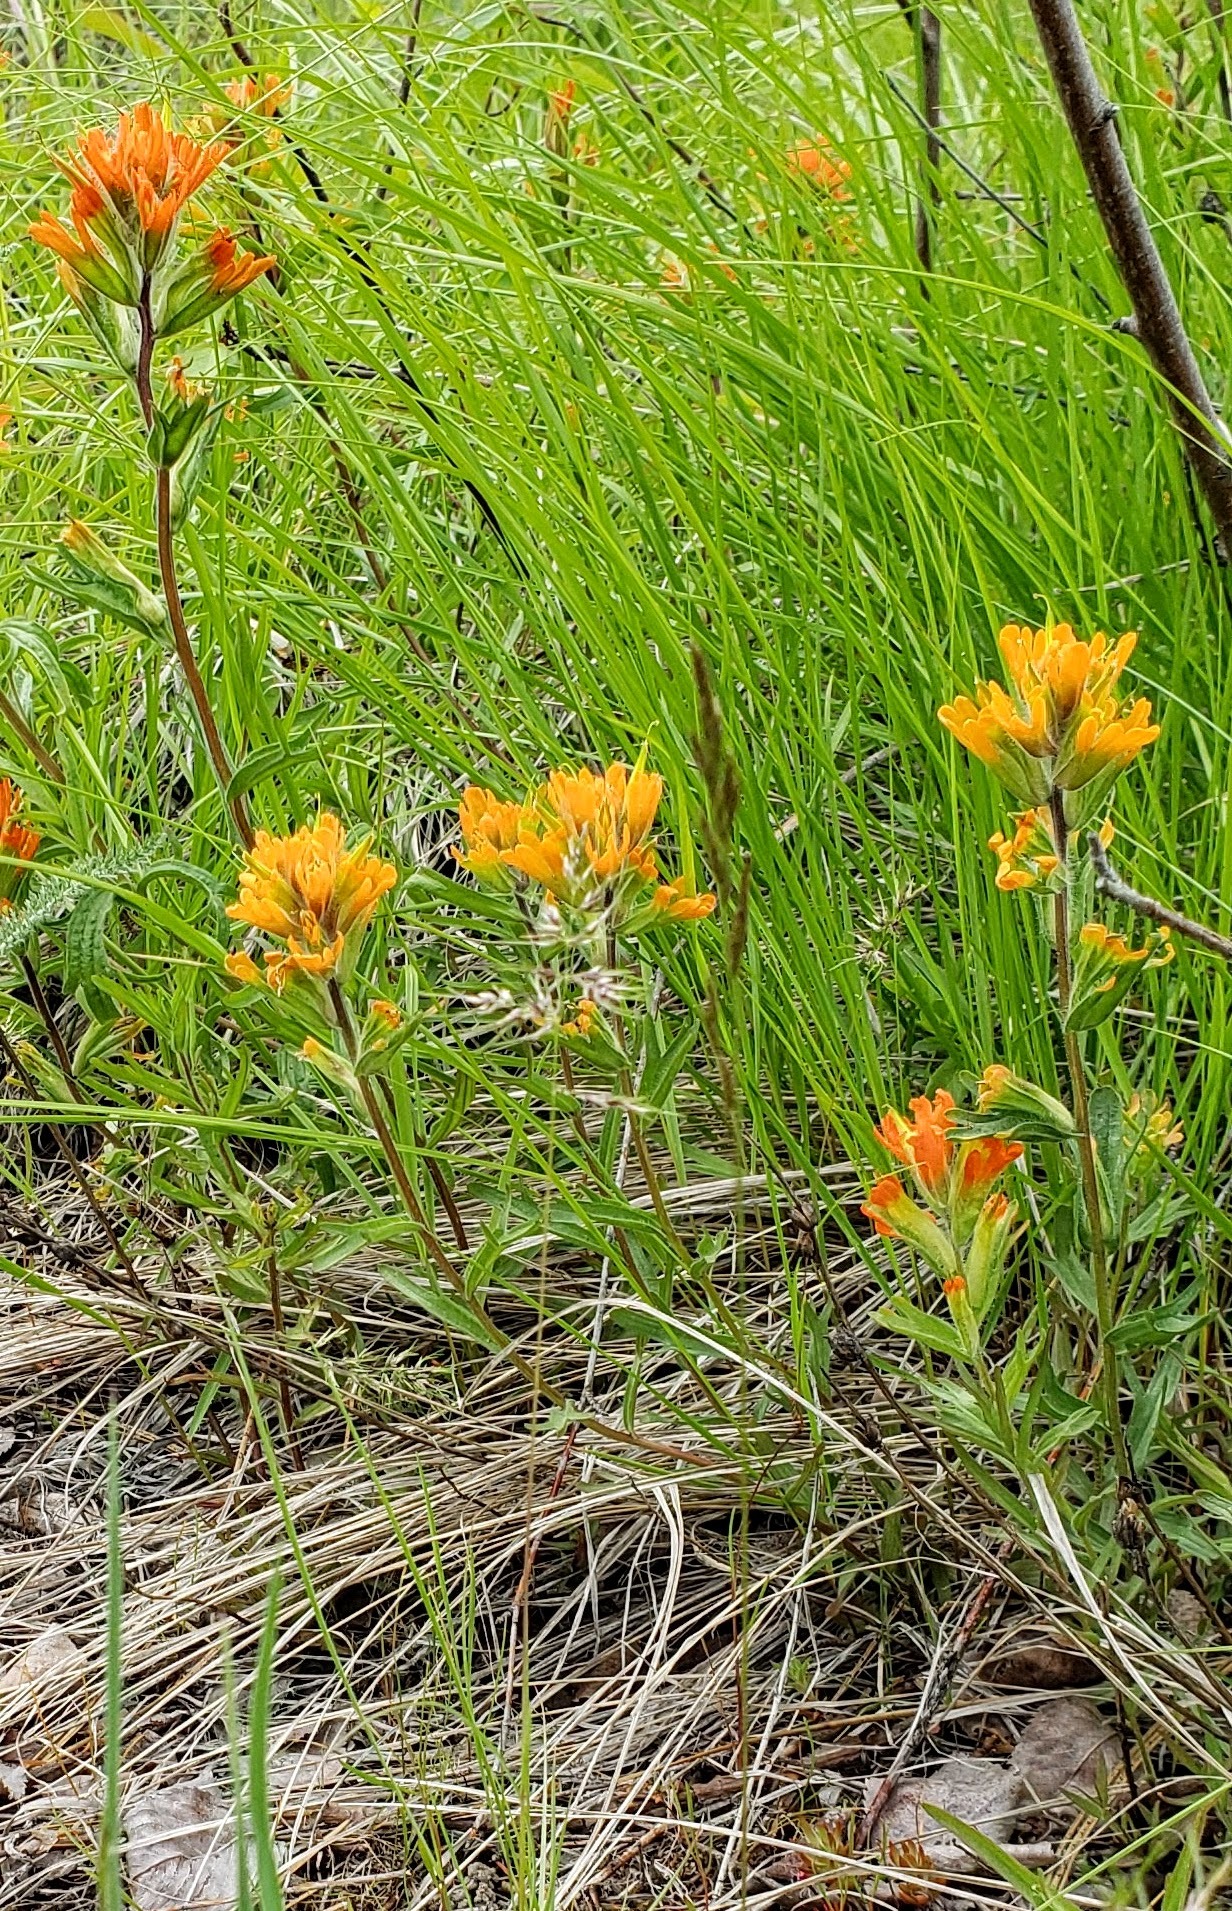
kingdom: Plantae
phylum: Tracheophyta
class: Magnoliopsida
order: Lamiales
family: Orobanchaceae
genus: Castilleja
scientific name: Castilleja hispida
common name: Bristly paintbrush
